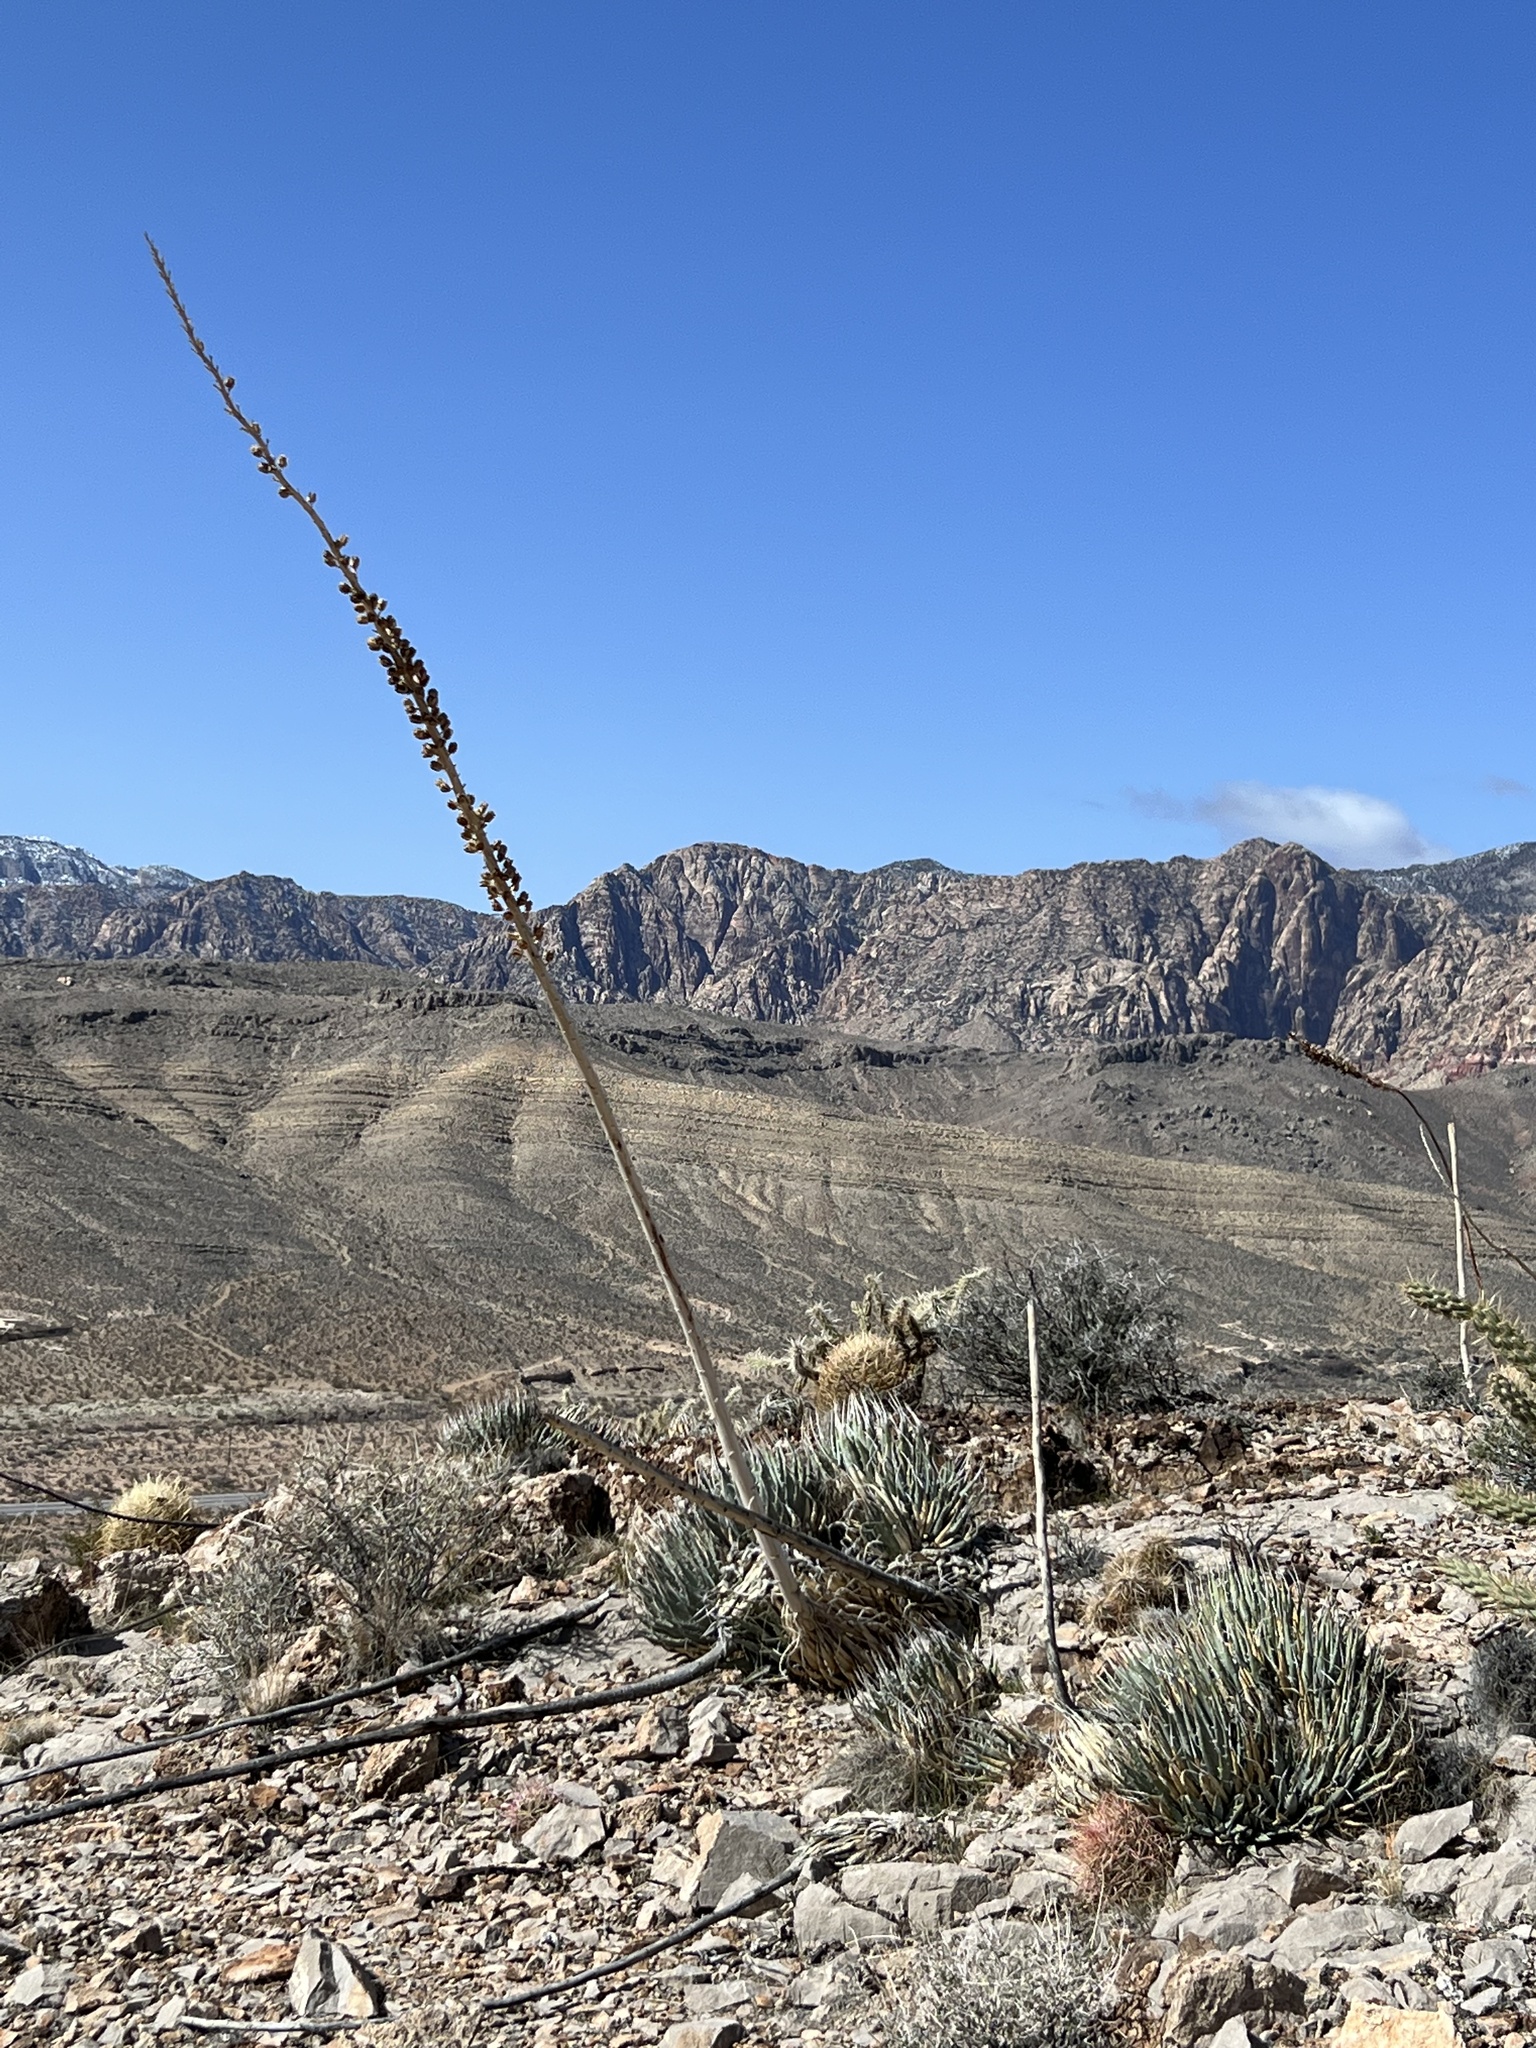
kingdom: Plantae
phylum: Tracheophyta
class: Liliopsida
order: Asparagales
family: Asparagaceae
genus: Agave
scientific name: Agave utahensis
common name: Utah agave
